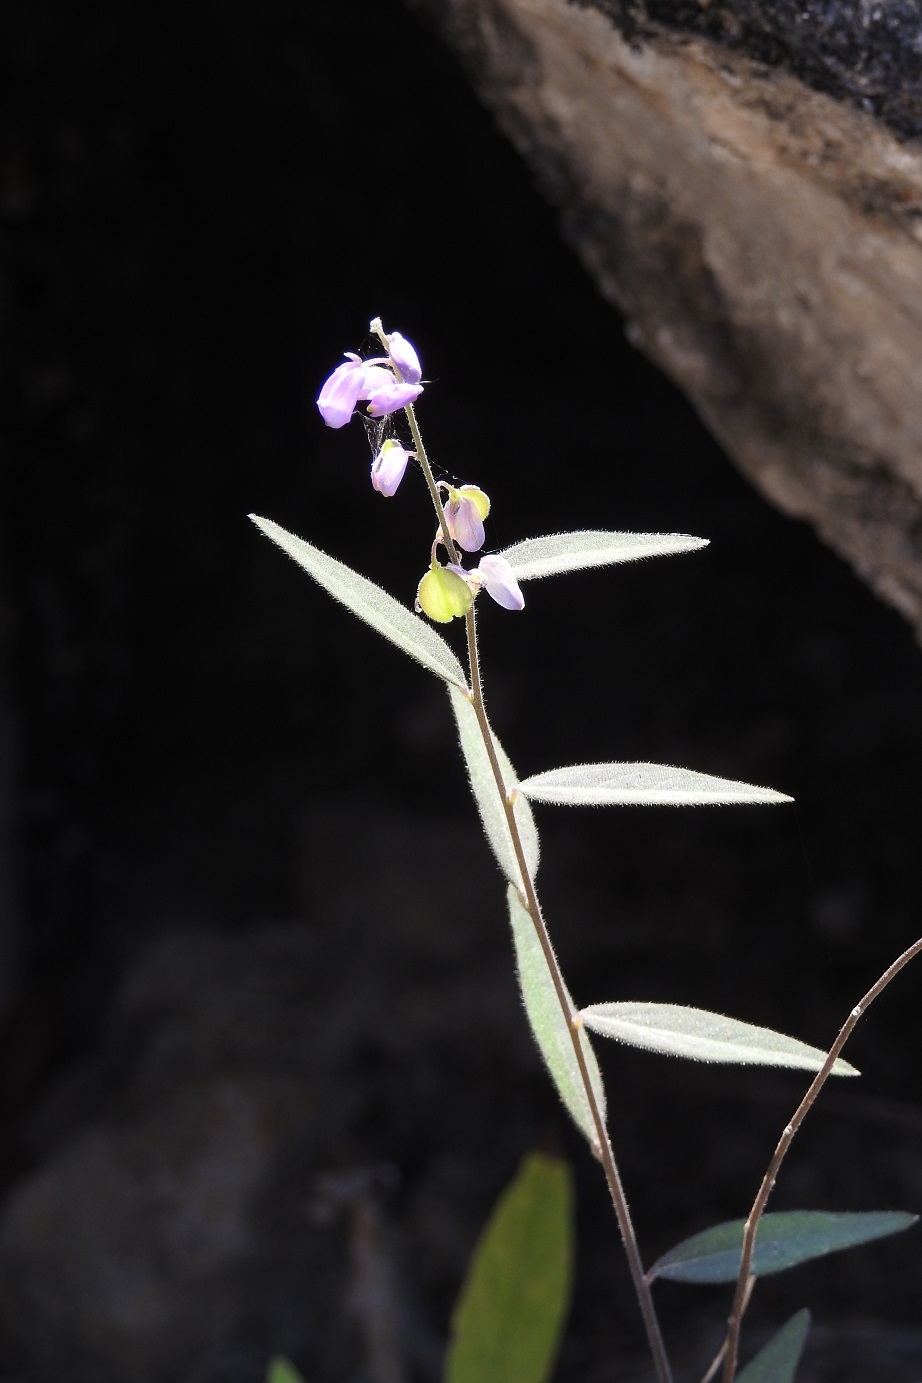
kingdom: Plantae
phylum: Tracheophyta
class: Magnoliopsida
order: Fabales
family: Polygalaceae
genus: Hebecarpa
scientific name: Hebecarpa obscura
